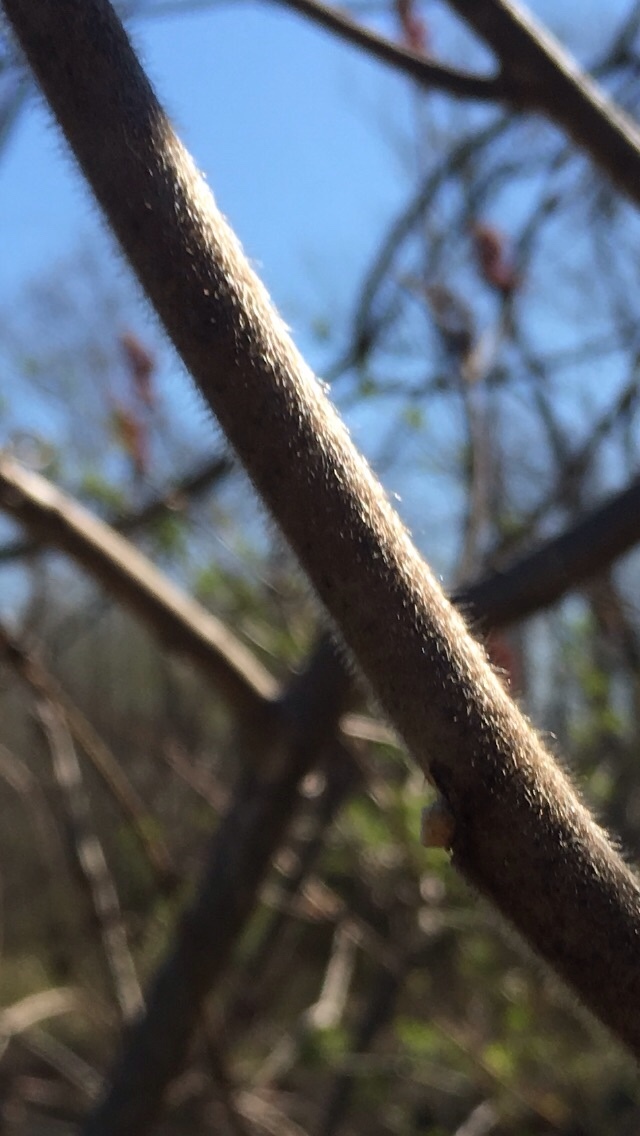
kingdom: Plantae
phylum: Tracheophyta
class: Magnoliopsida
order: Sapindales
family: Anacardiaceae
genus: Rhus
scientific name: Rhus typhina
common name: Staghorn sumac
